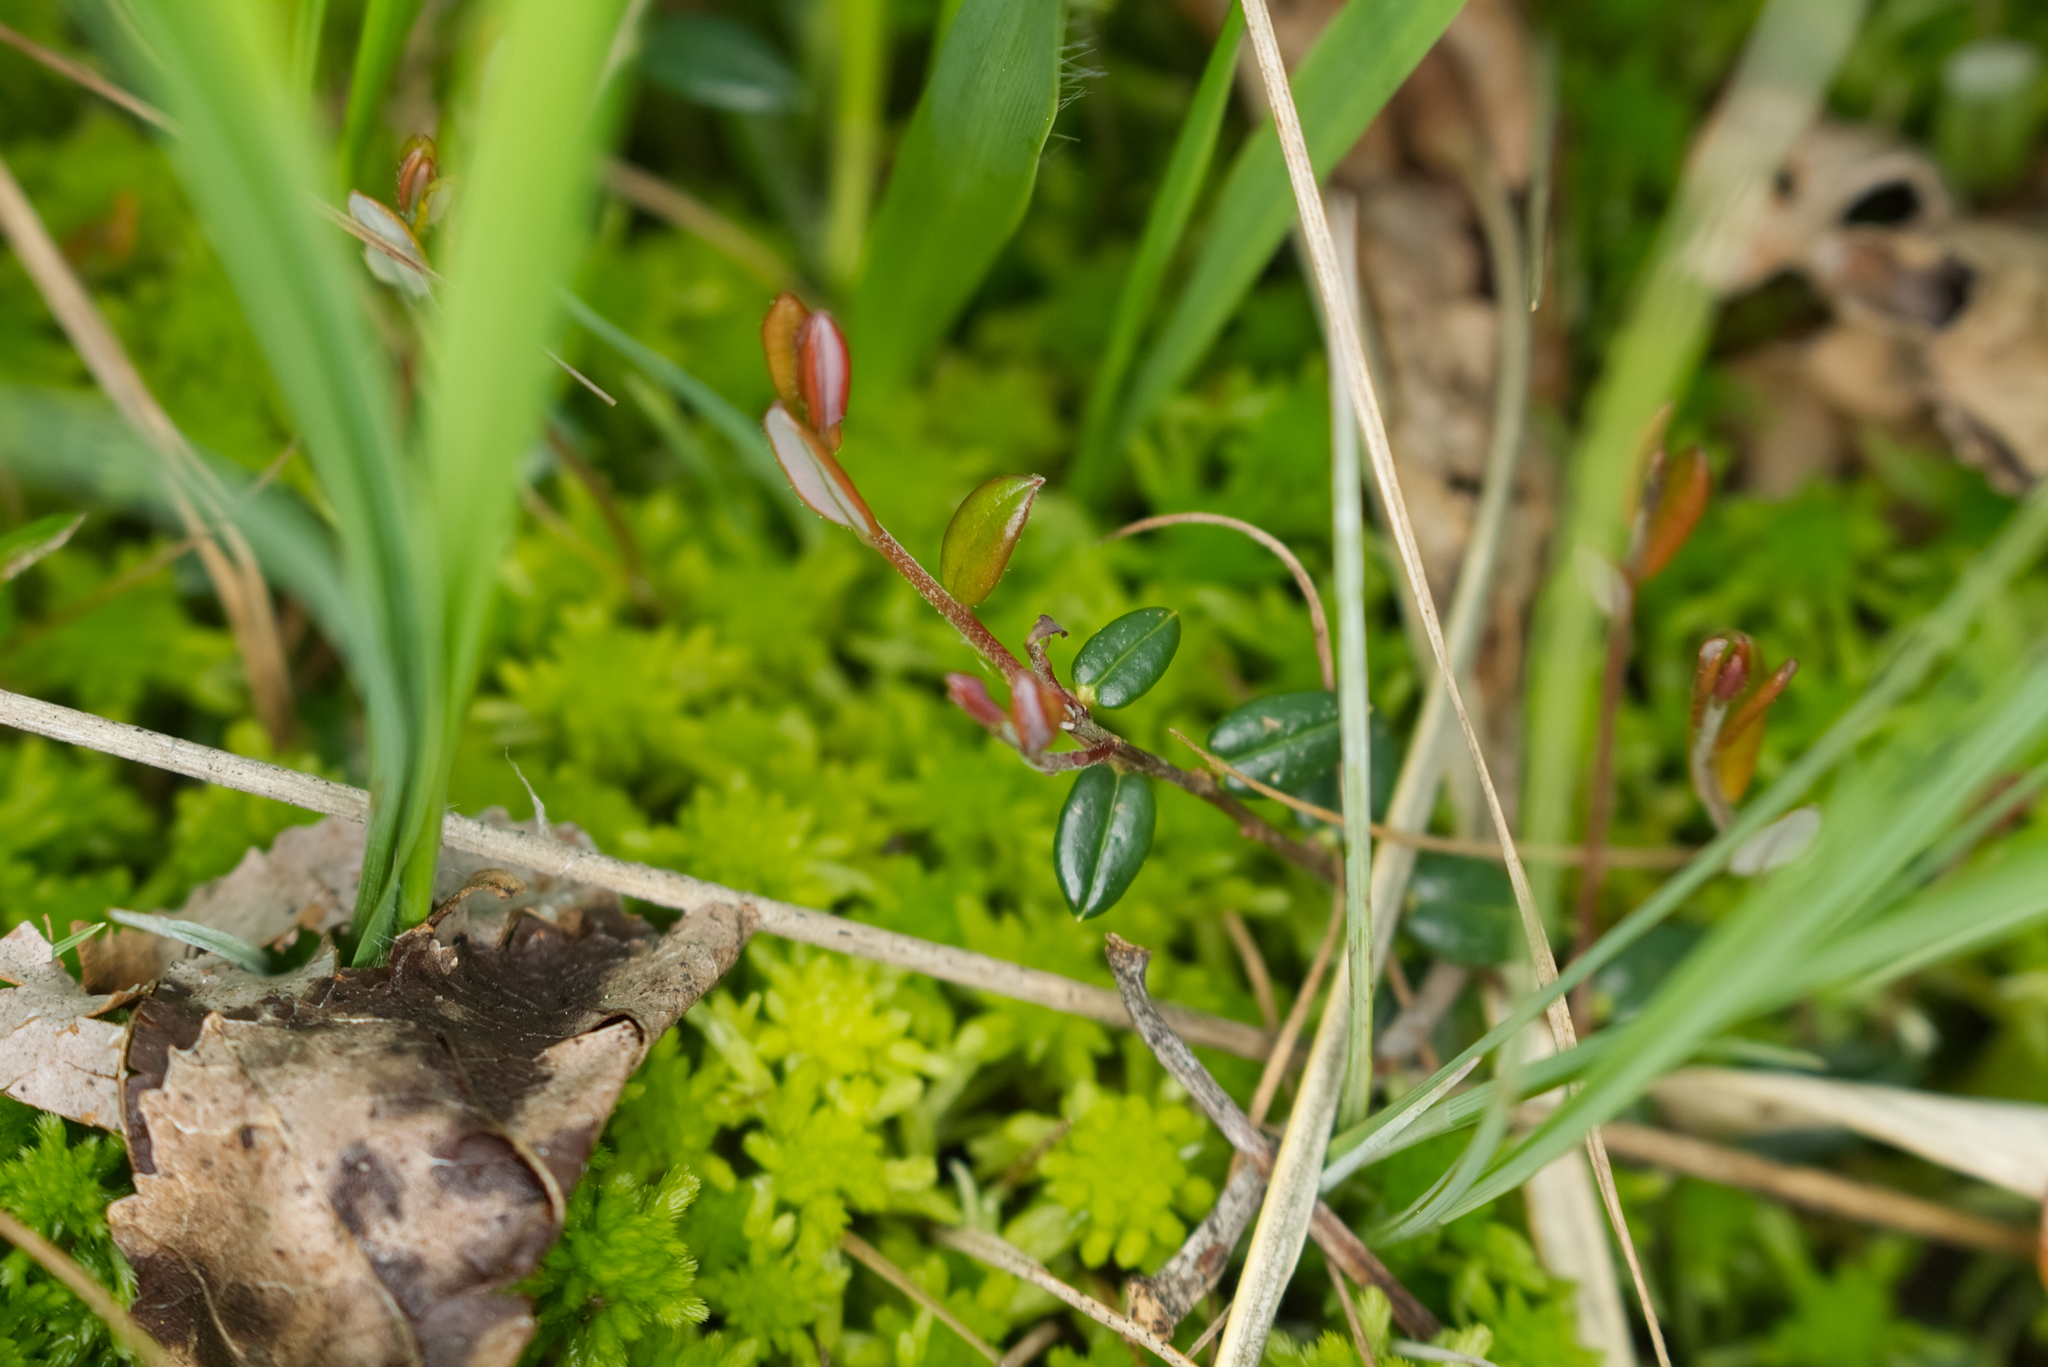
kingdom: Plantae
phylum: Tracheophyta
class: Magnoliopsida
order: Ericales
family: Ericaceae
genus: Vaccinium
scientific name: Vaccinium oxycoccos
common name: Cranberry
